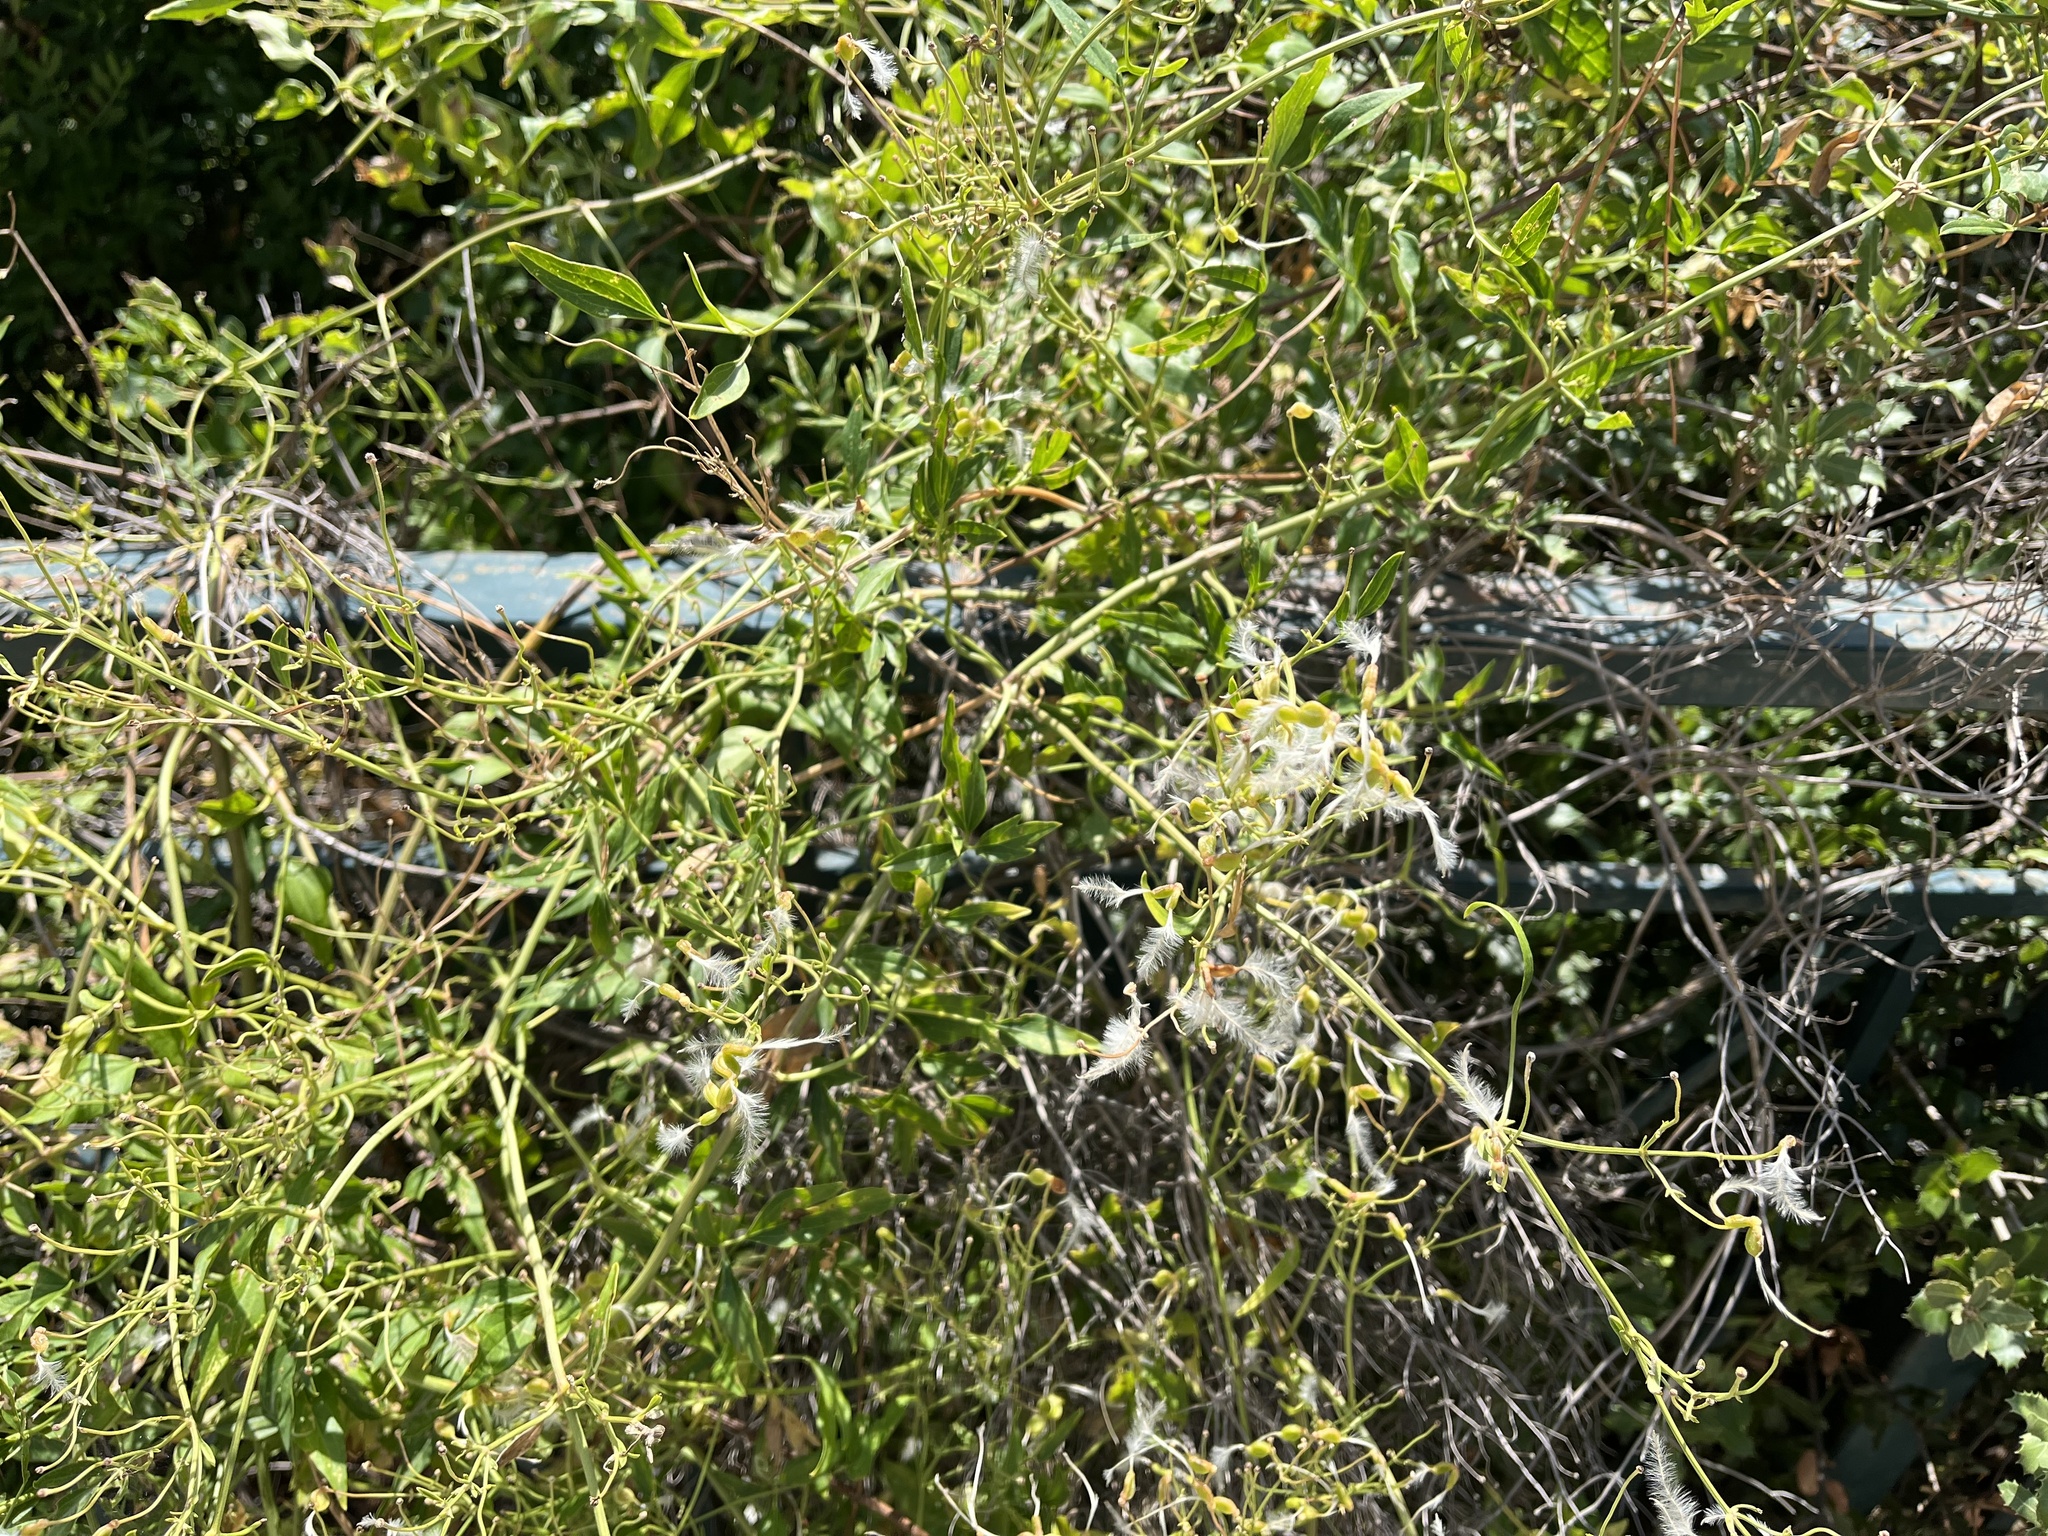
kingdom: Plantae
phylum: Tracheophyta
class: Magnoliopsida
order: Ranunculales
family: Ranunculaceae
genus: Clematis
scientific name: Clematis flammula
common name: Virgin's-bower
